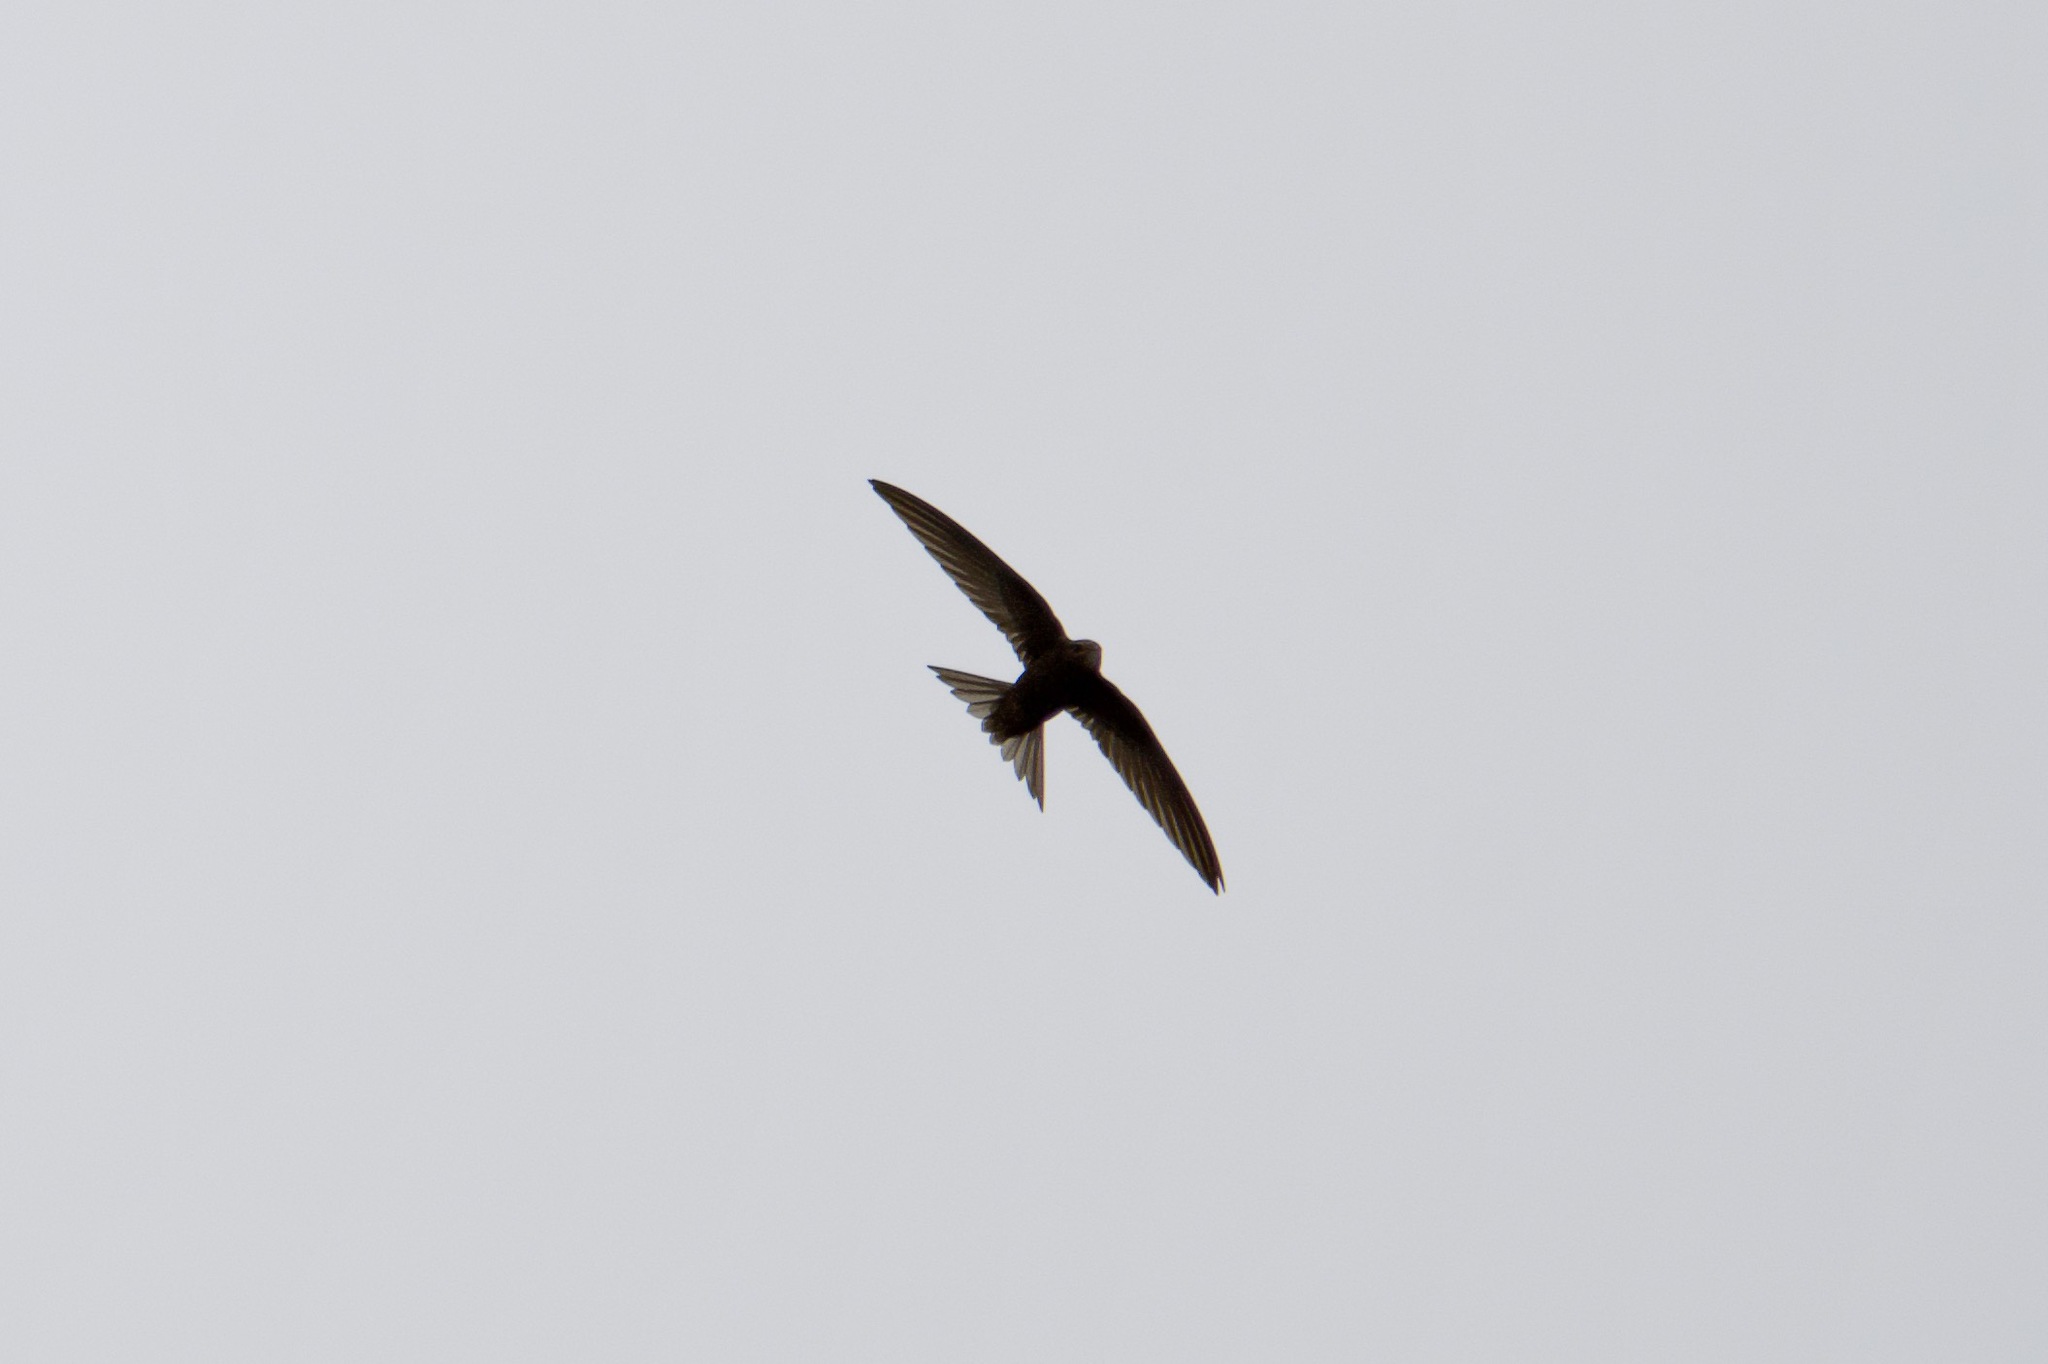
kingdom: Animalia
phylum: Chordata
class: Aves
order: Apodiformes
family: Apodidae
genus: Apus
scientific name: Apus apus
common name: Common swift
